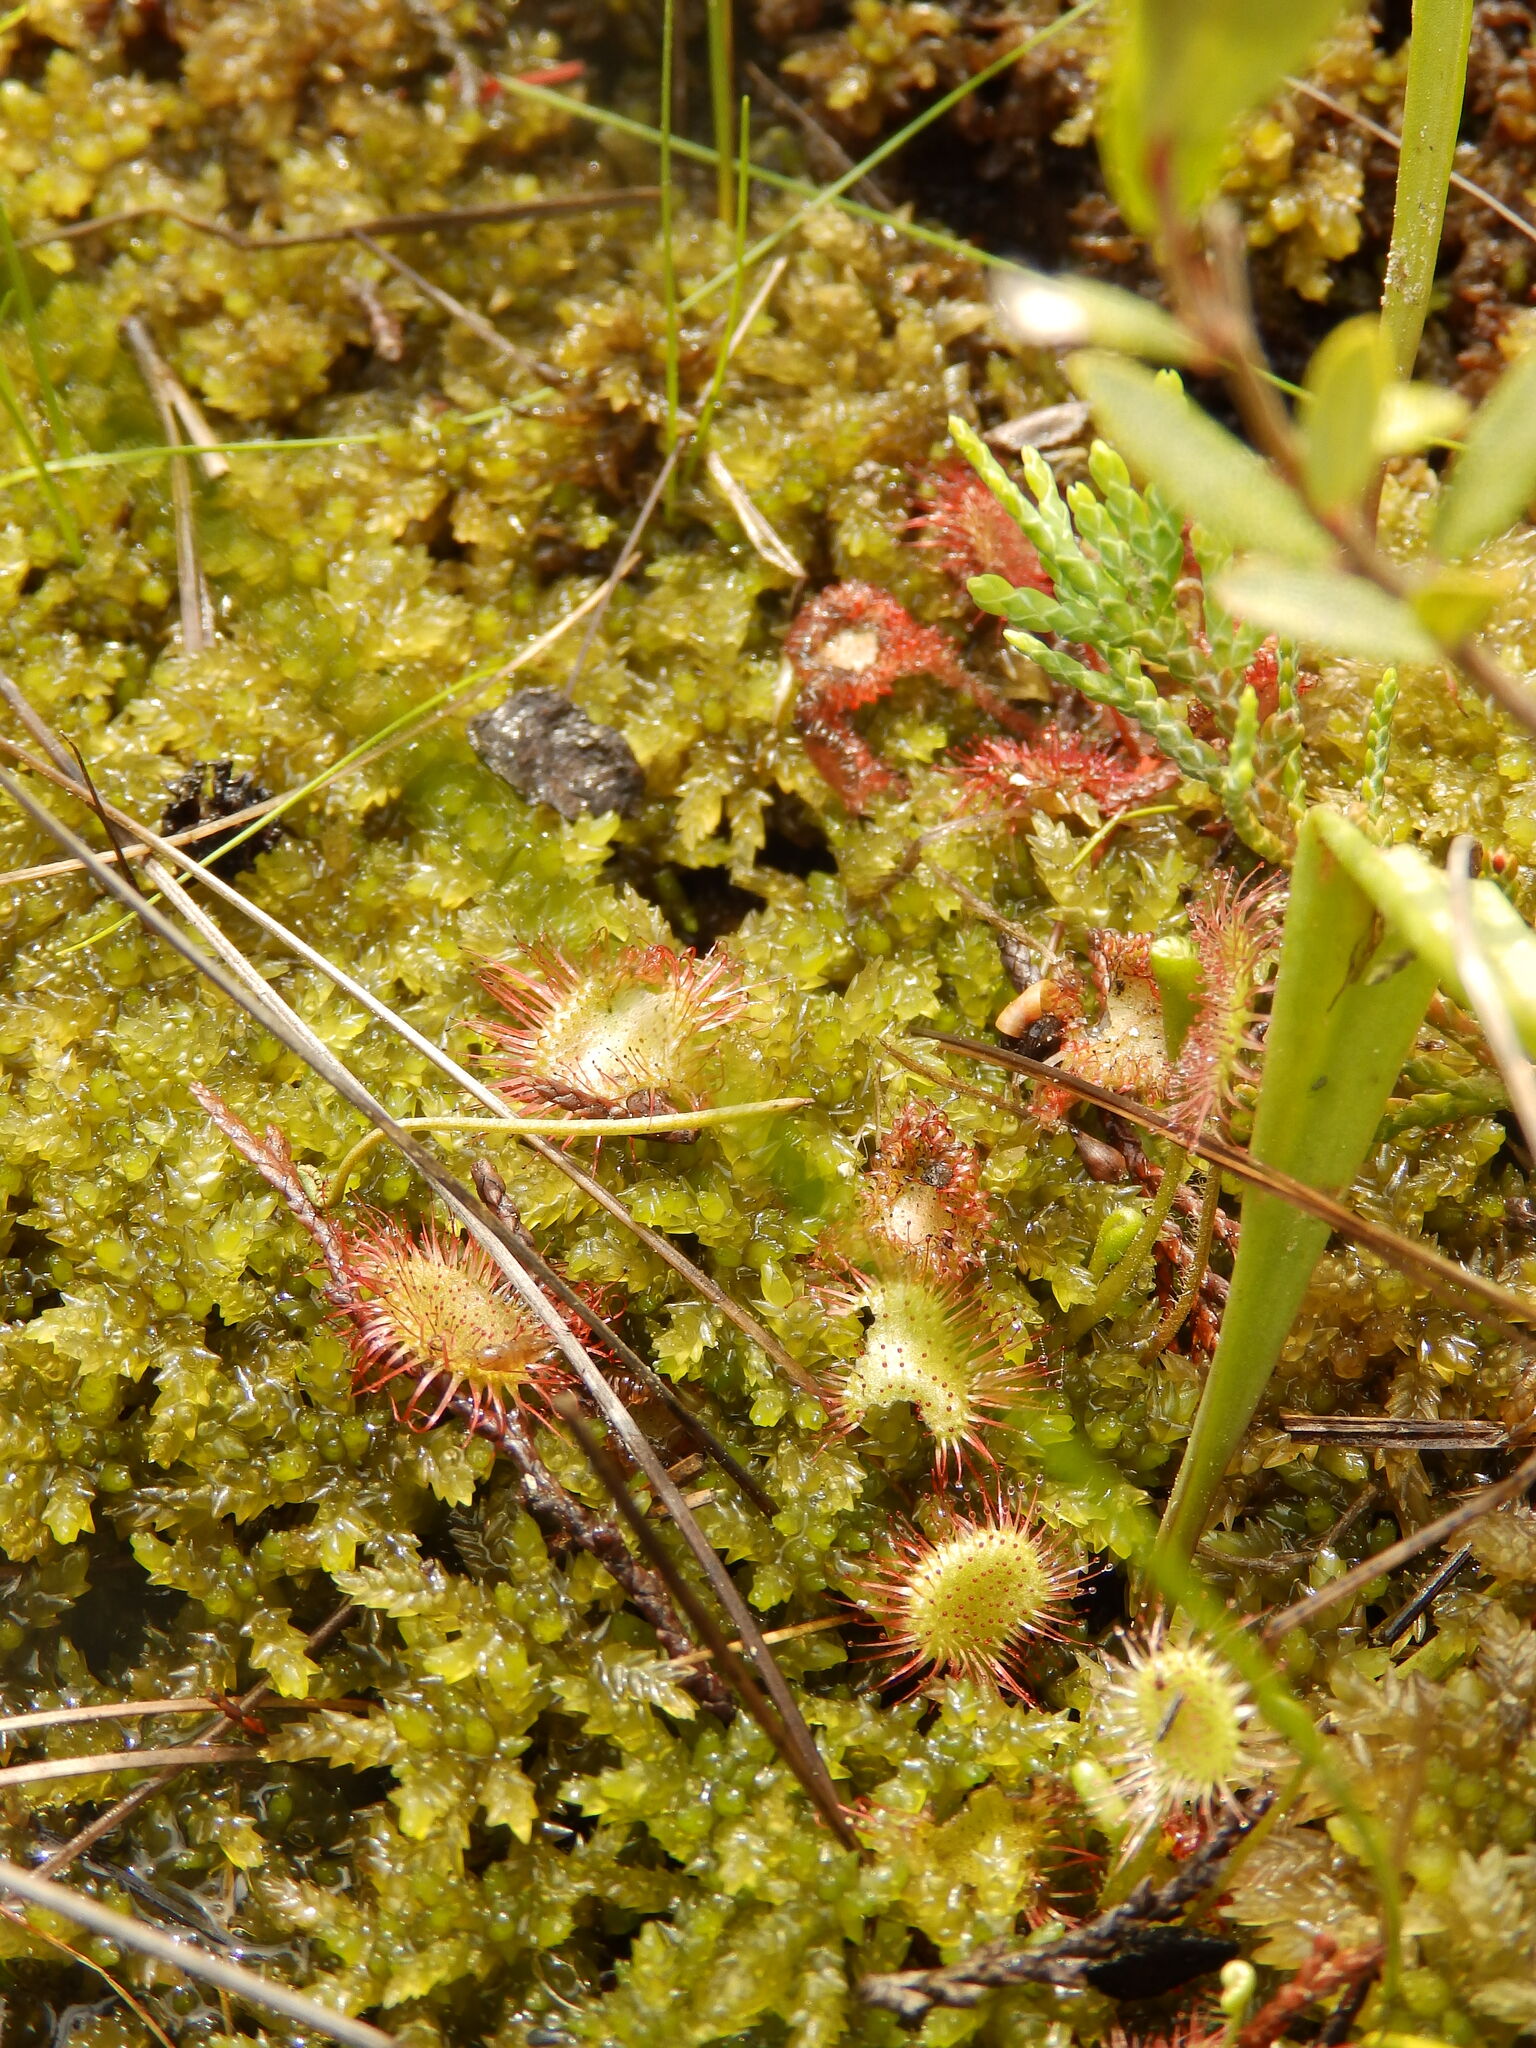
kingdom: Plantae
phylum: Tracheophyta
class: Magnoliopsida
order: Caryophyllales
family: Droseraceae
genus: Drosera
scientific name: Drosera rotundifolia
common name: Round-leaved sundew
